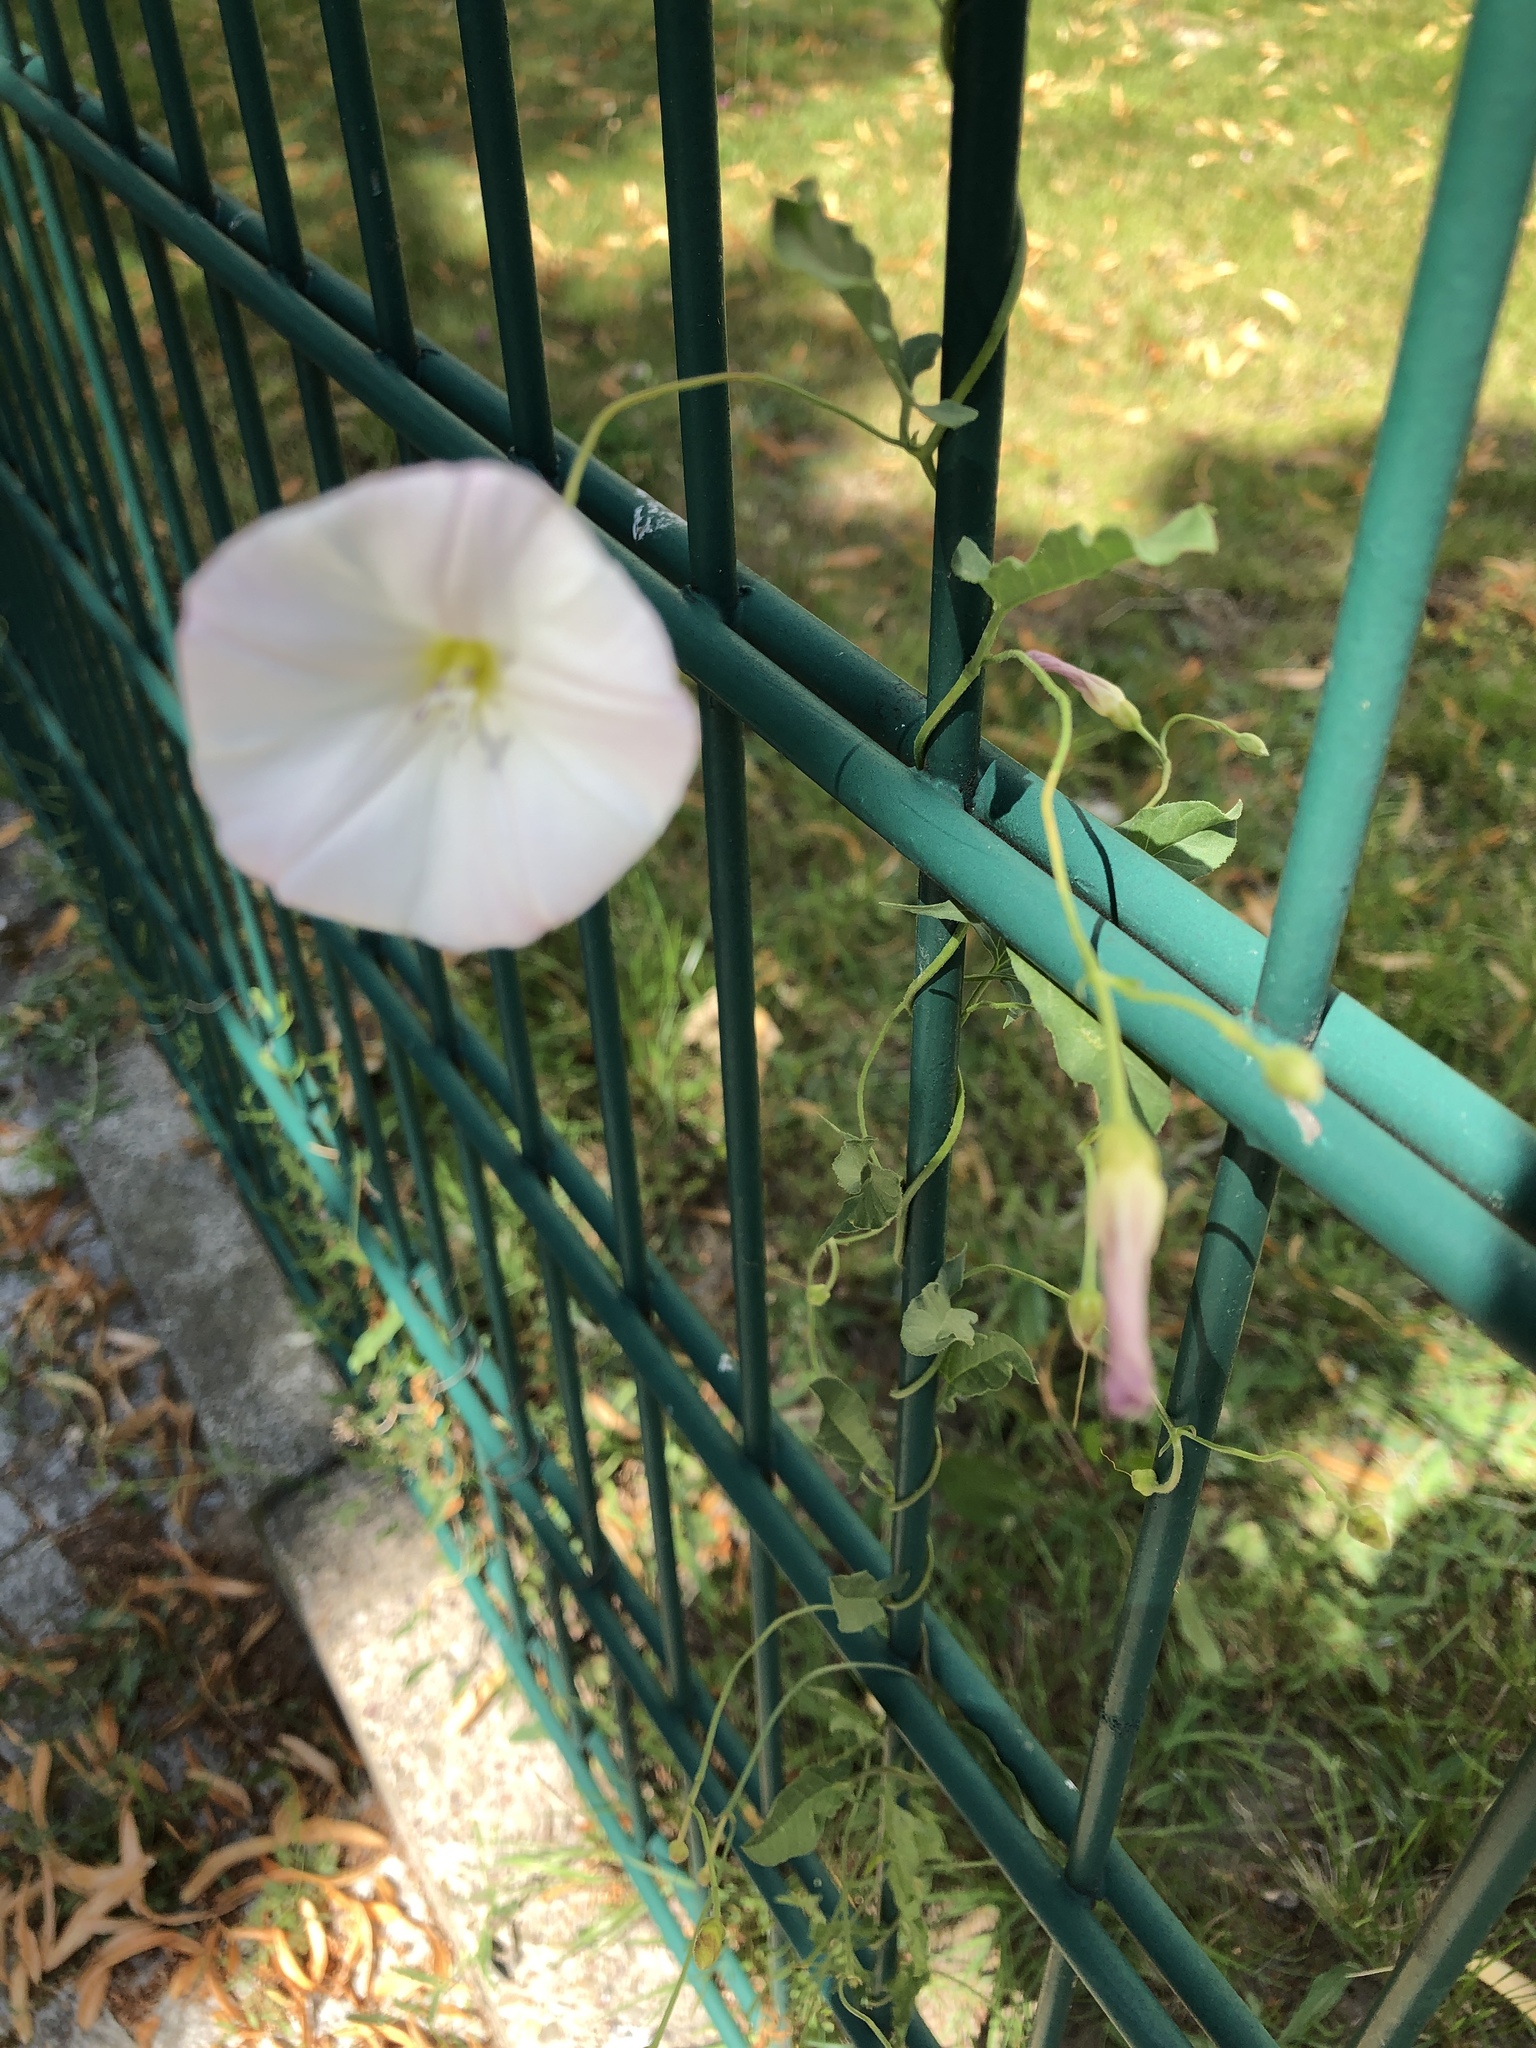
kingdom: Plantae
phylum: Tracheophyta
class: Magnoliopsida
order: Solanales
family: Convolvulaceae
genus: Convolvulus
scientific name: Convolvulus arvensis
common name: Field bindweed
